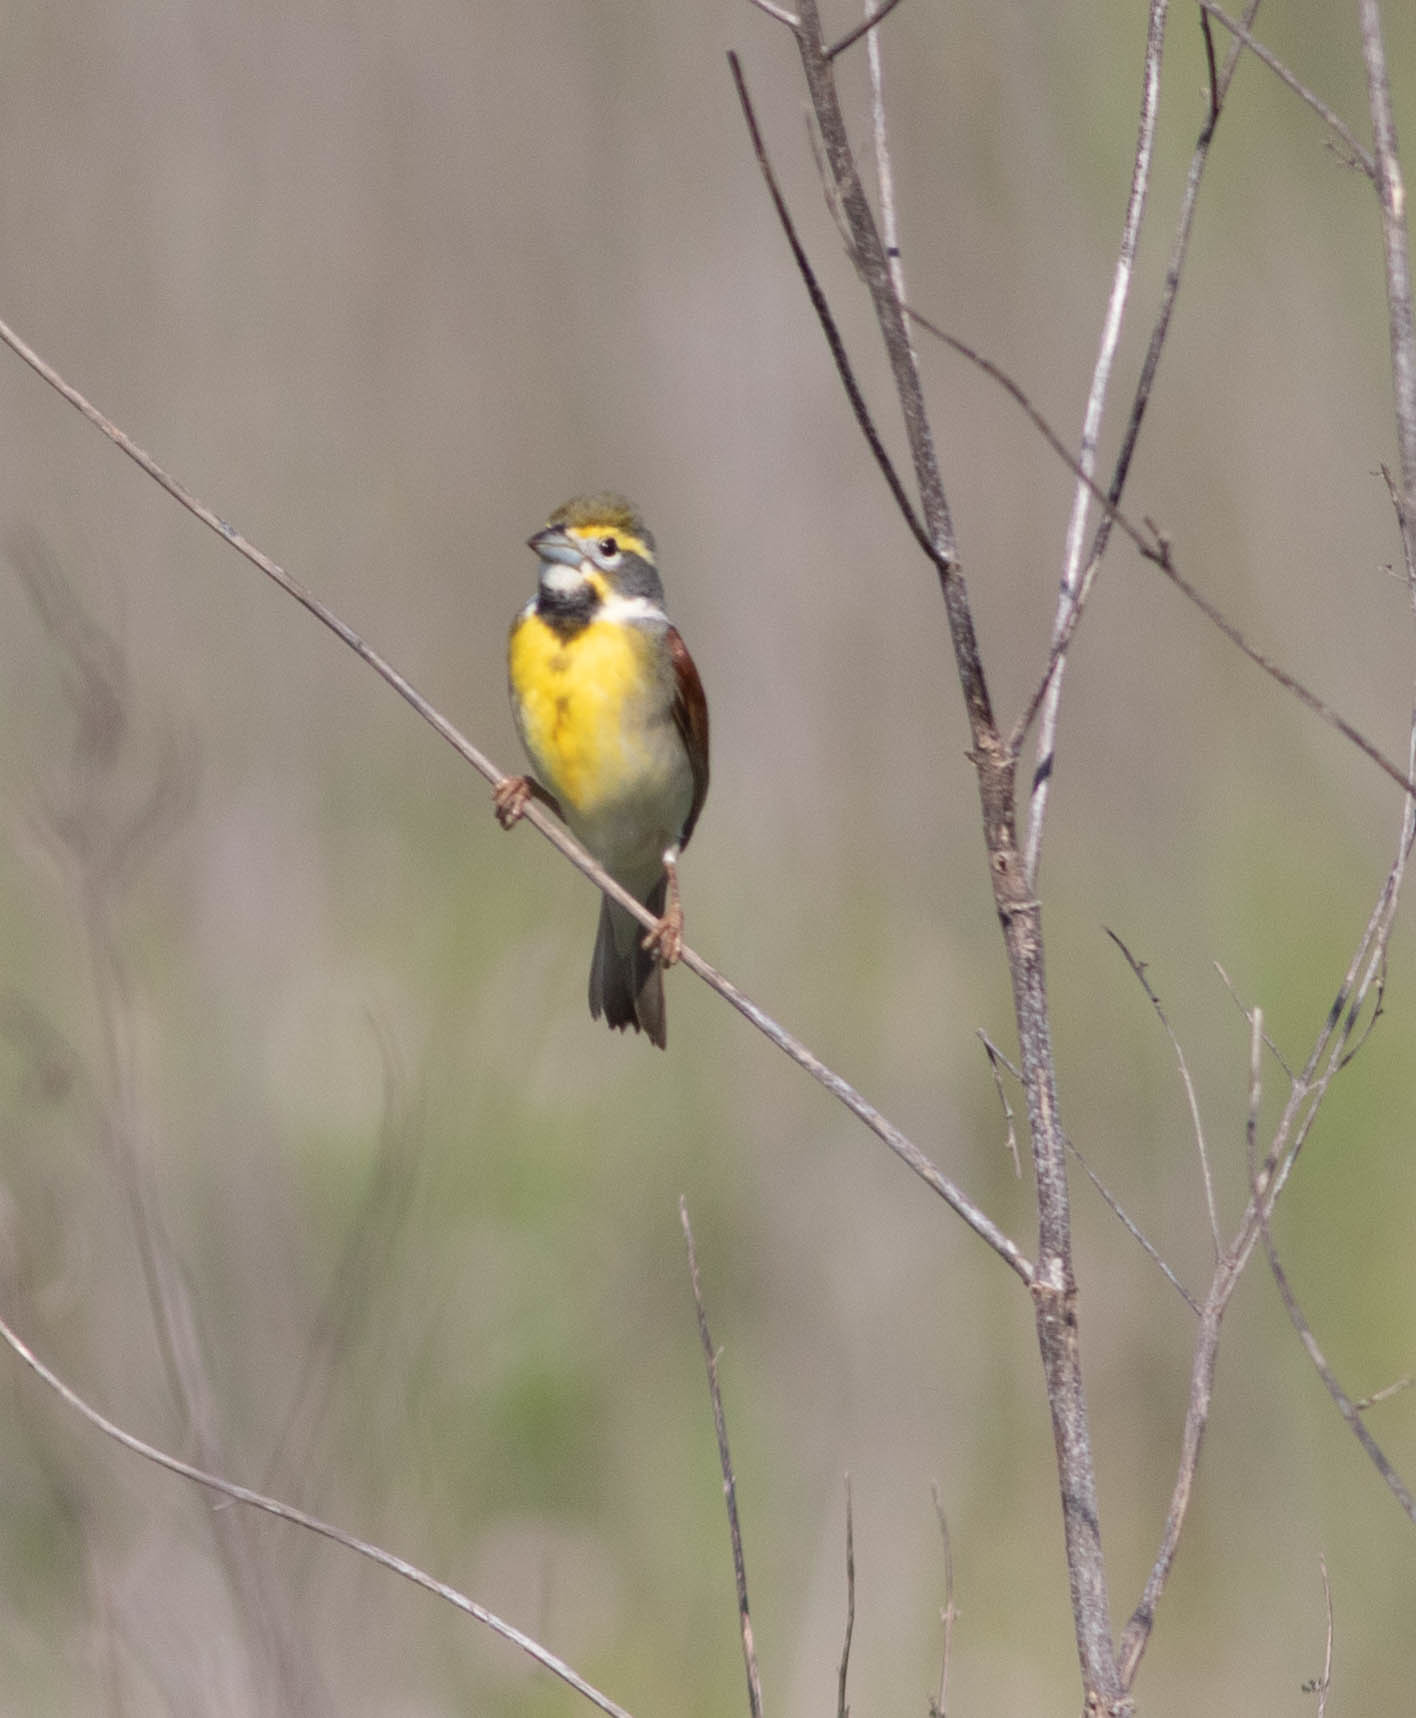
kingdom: Animalia
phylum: Chordata
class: Aves
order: Passeriformes
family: Cardinalidae
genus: Spiza
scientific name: Spiza americana
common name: Dickcissel
